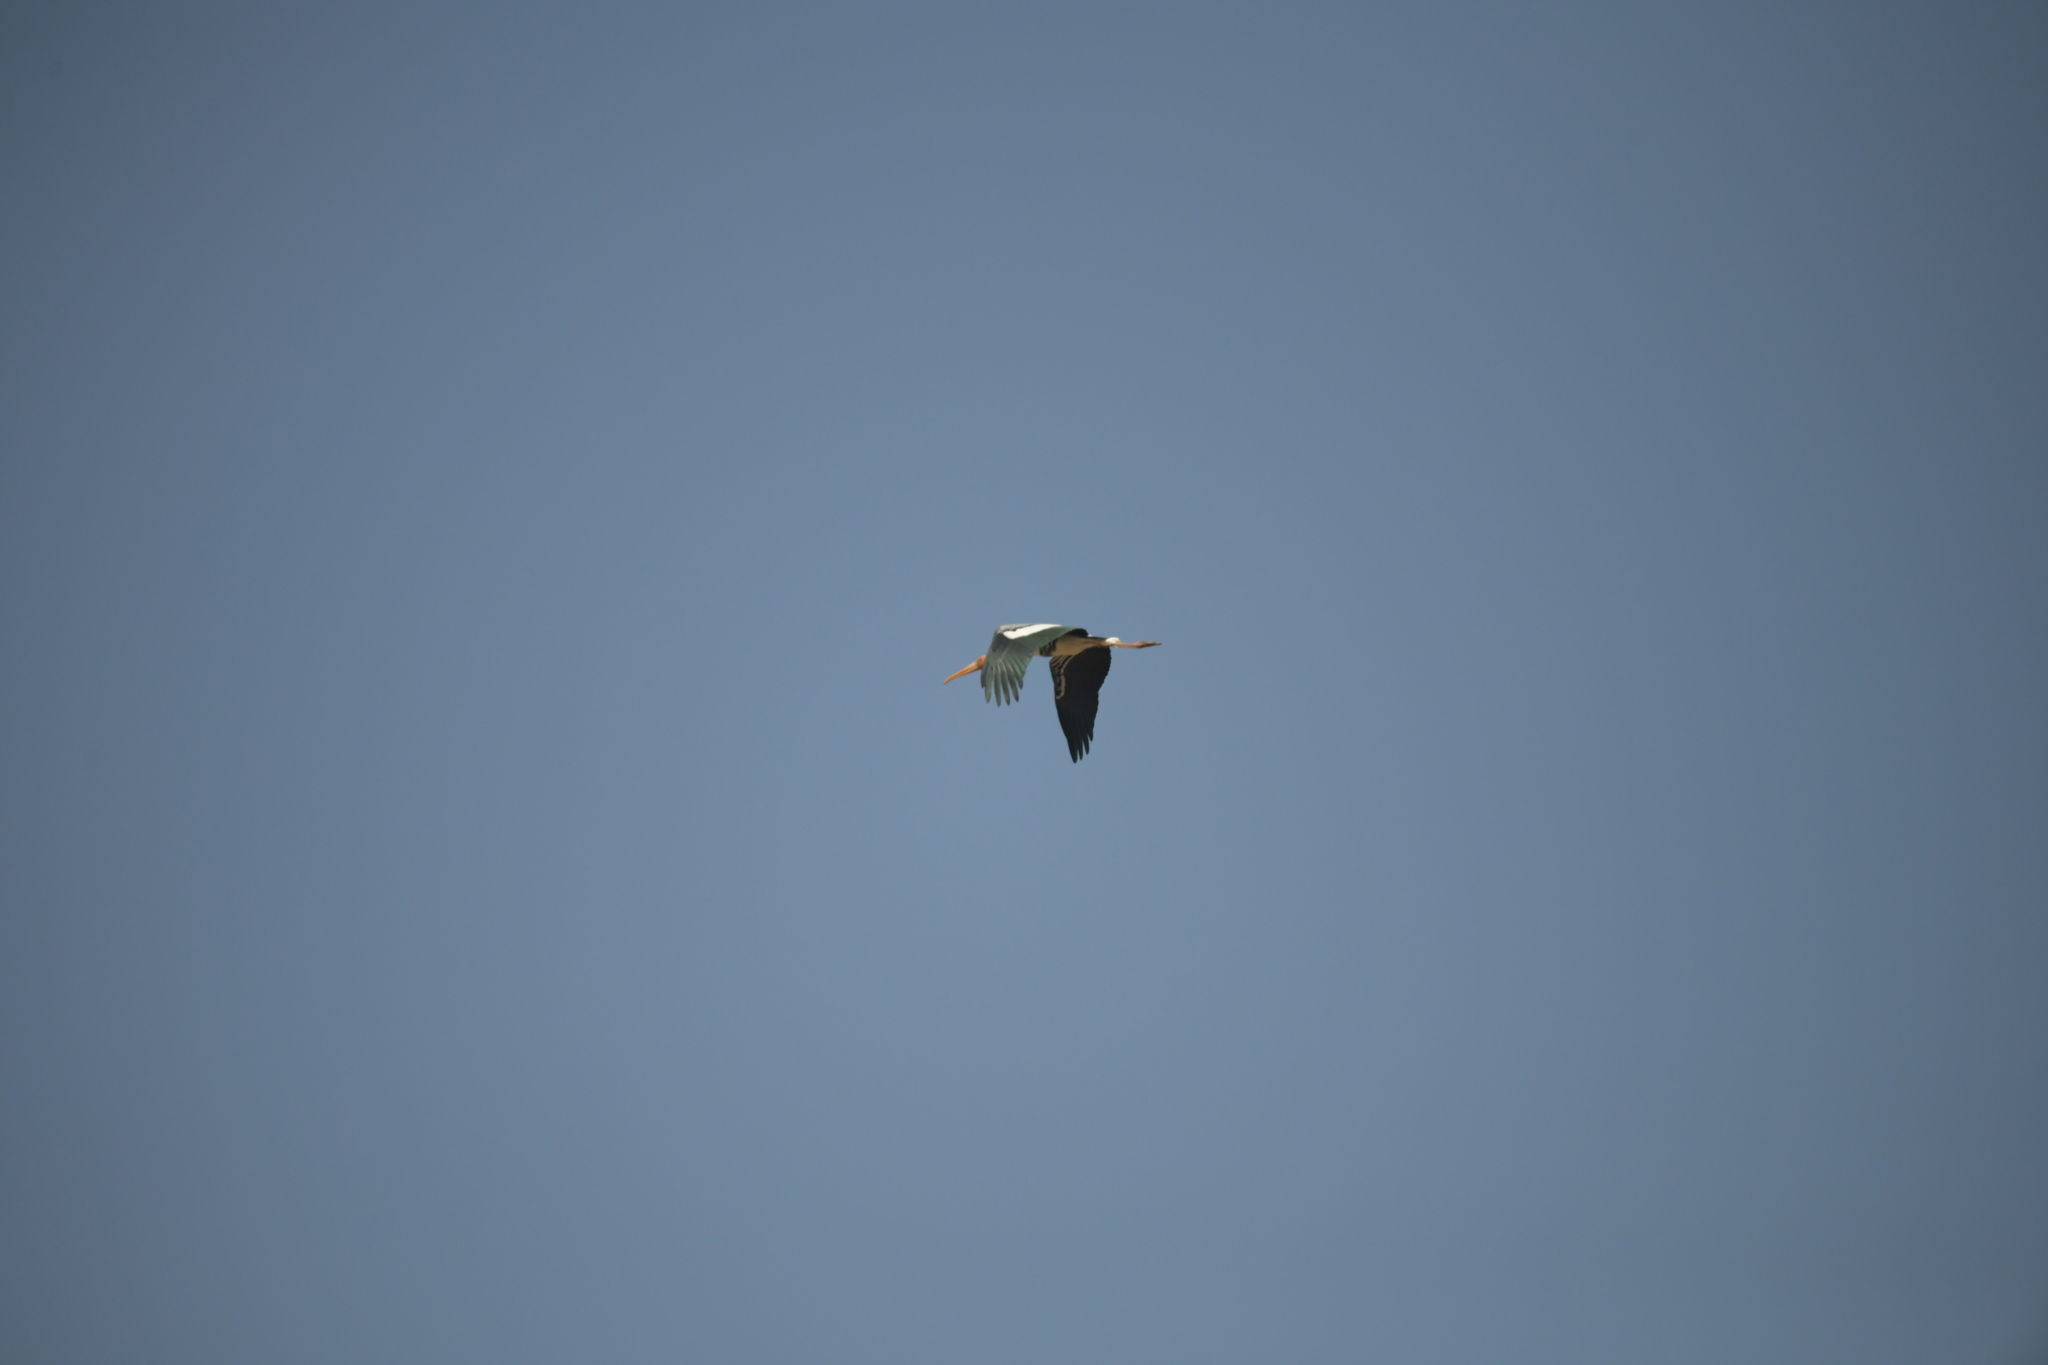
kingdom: Animalia
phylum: Chordata
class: Aves
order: Ciconiiformes
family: Ciconiidae
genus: Mycteria
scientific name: Mycteria leucocephala
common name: Painted stork
